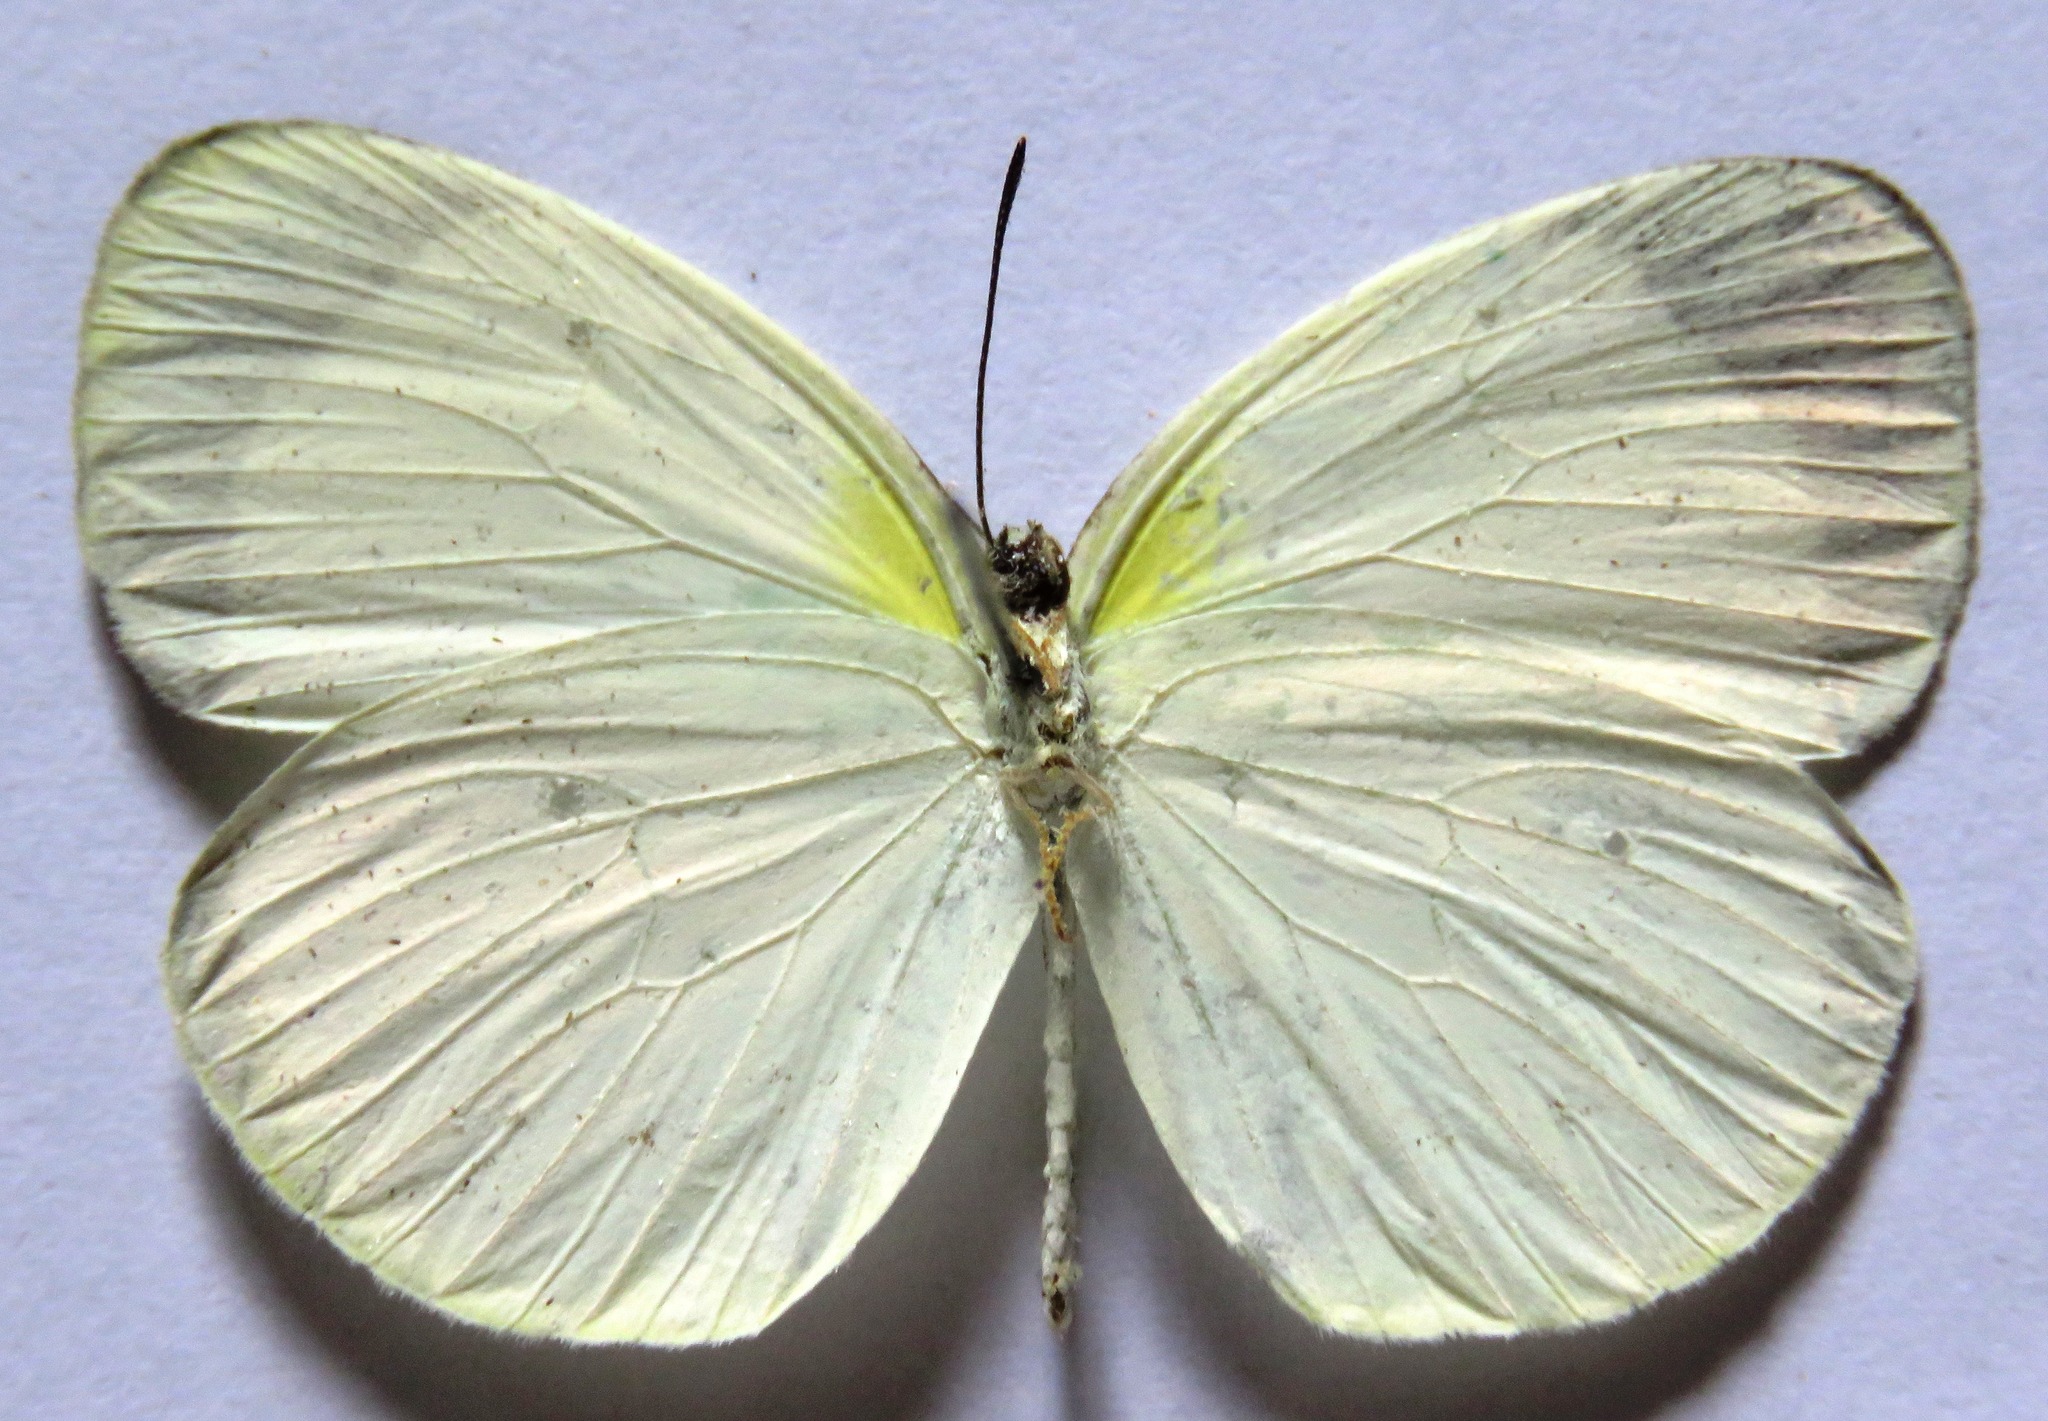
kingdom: Animalia
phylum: Arthropoda
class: Insecta
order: Lepidoptera
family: Pieridae
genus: Abaeis
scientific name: Abaeis albula
